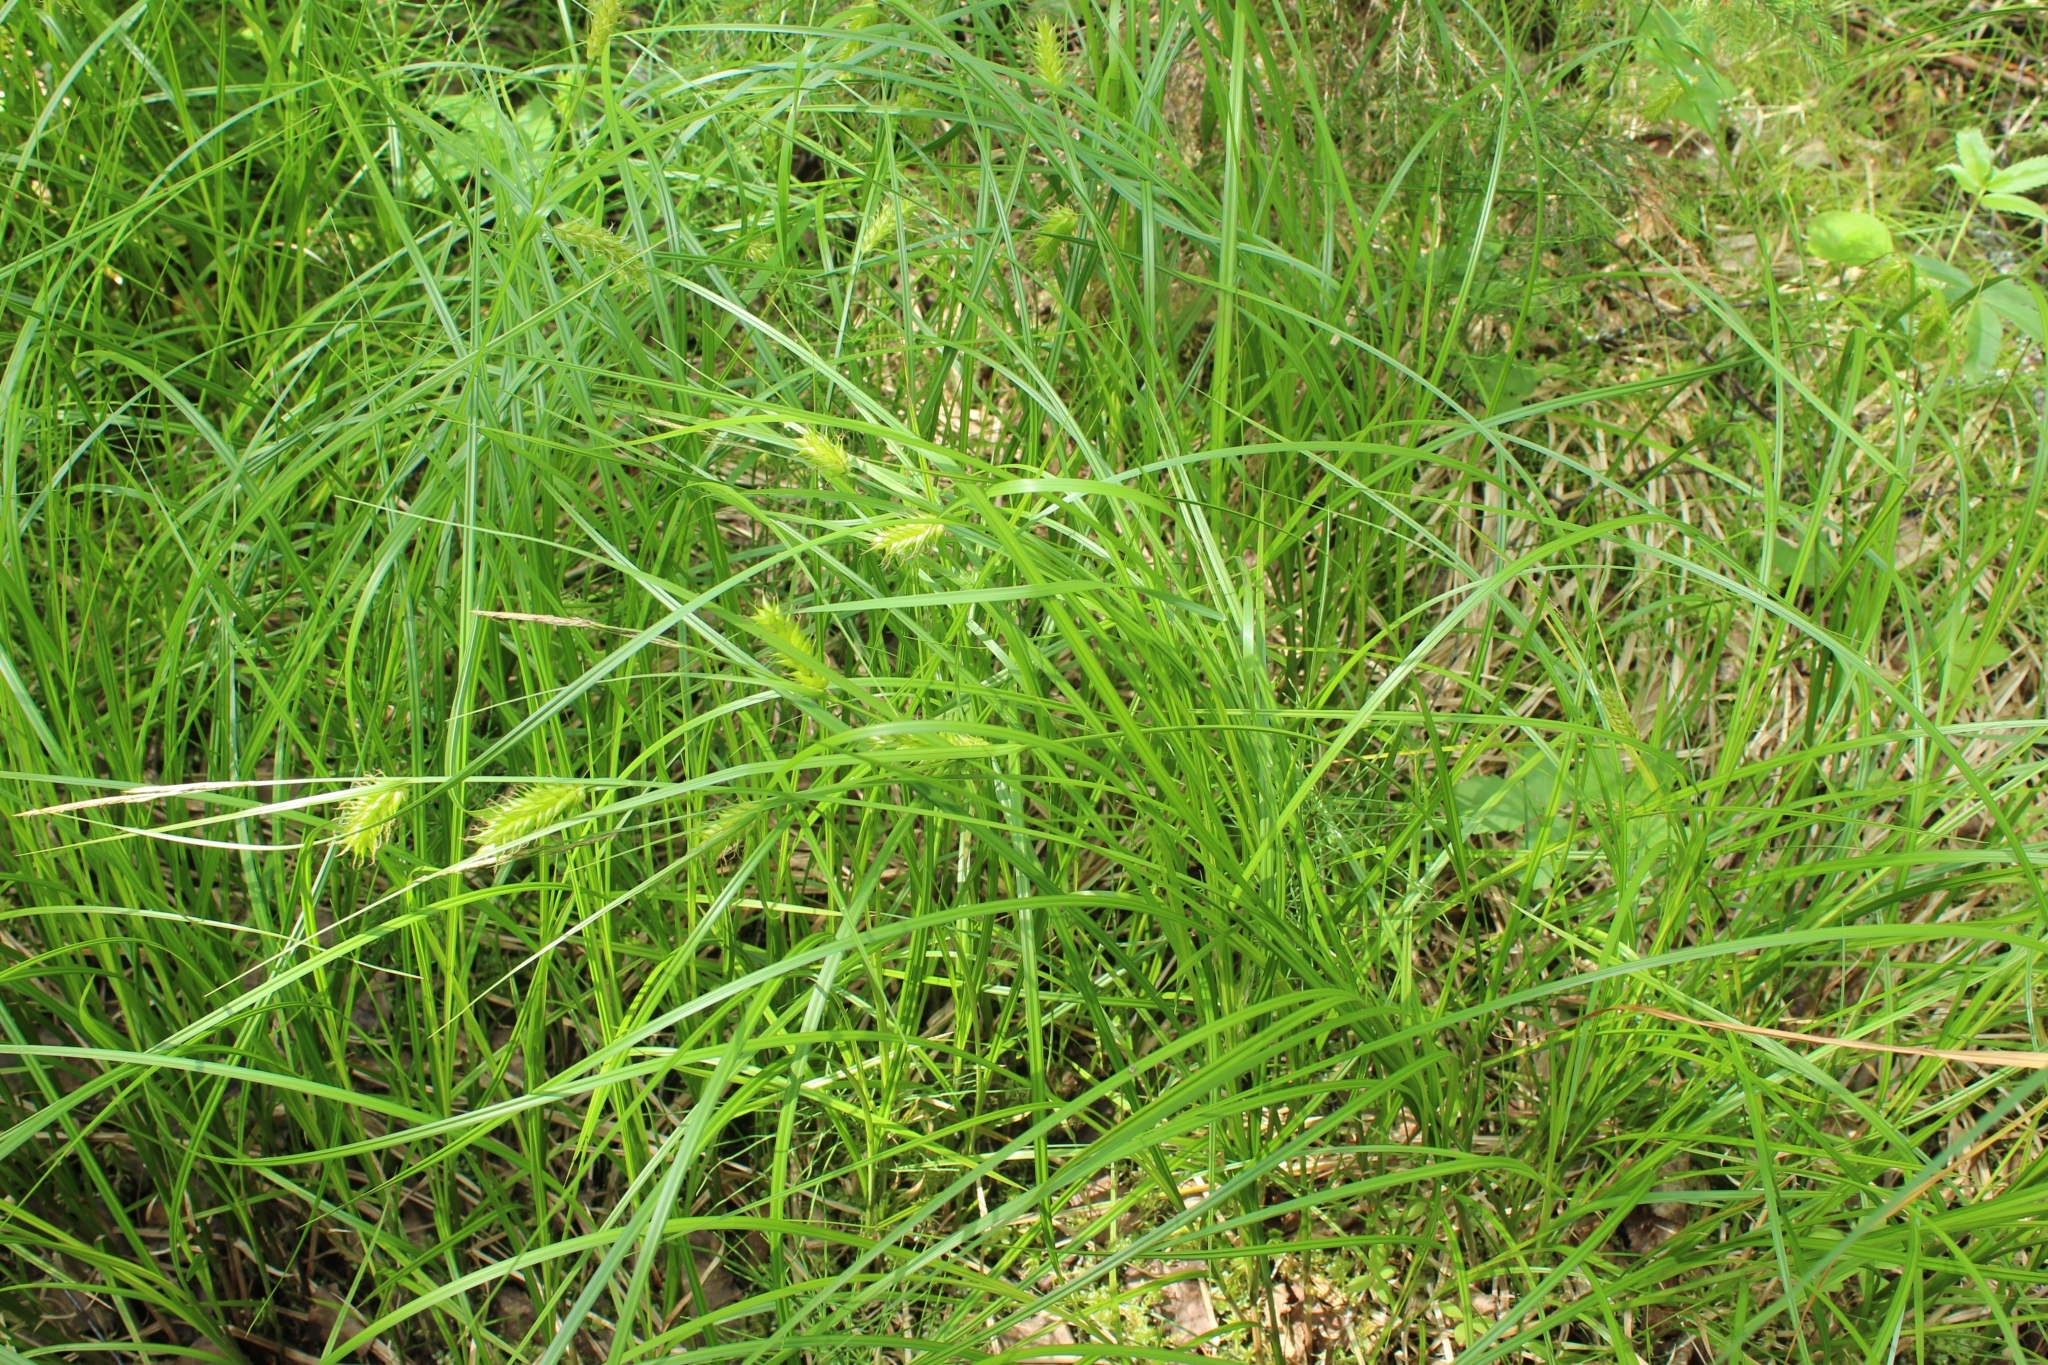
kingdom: Plantae
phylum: Tracheophyta
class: Liliopsida
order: Poales
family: Cyperaceae
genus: Carex
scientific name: Carex vesicaria
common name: Bladder-sedge
